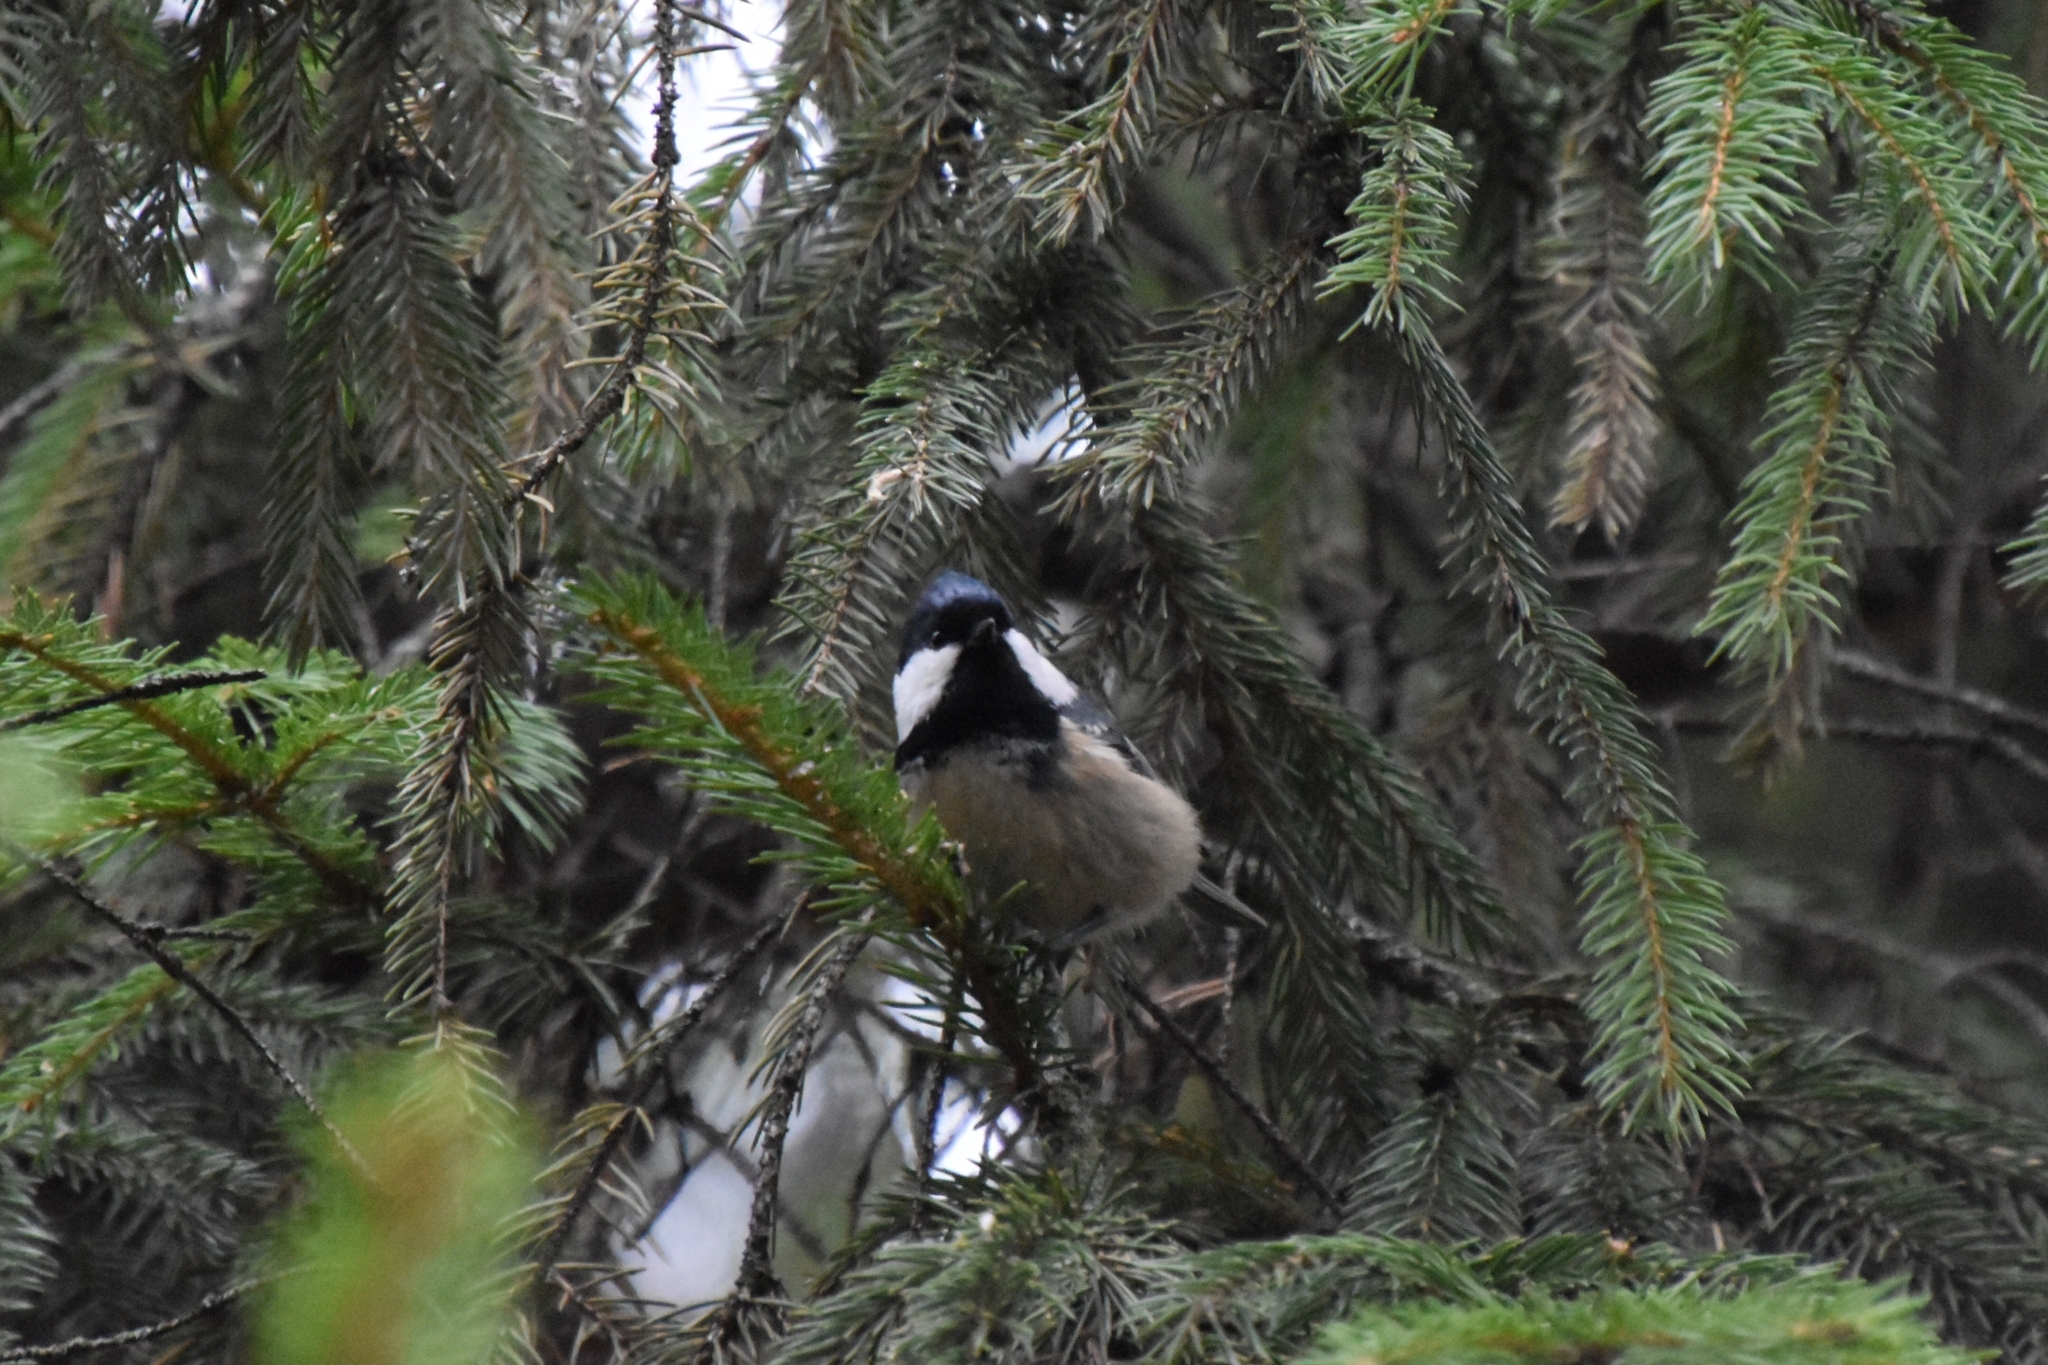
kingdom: Animalia
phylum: Chordata
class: Aves
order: Passeriformes
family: Paridae
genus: Periparus
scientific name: Periparus ater
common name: Coal tit
